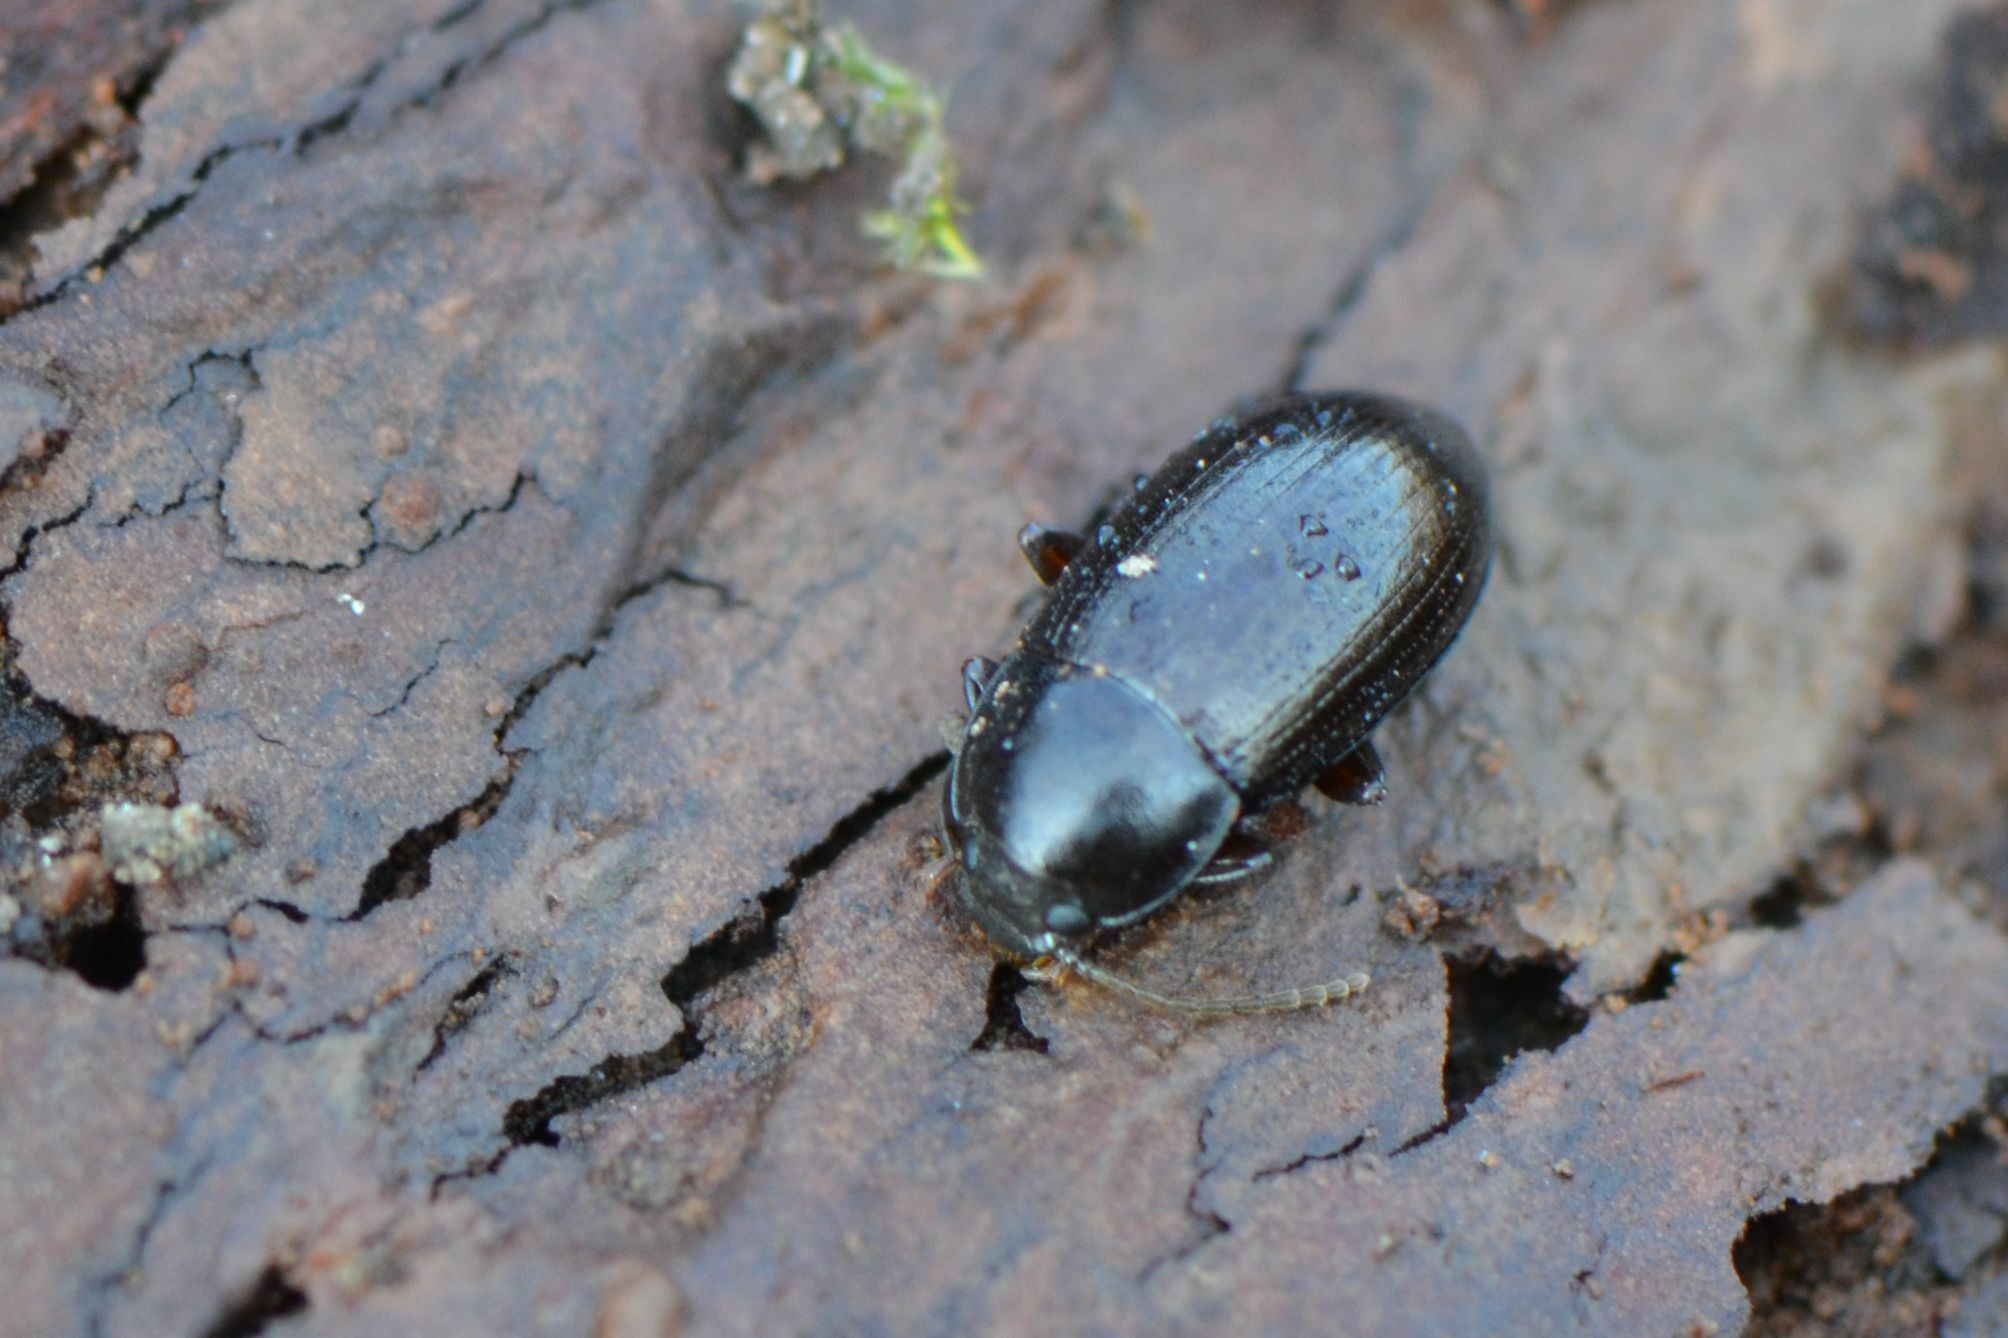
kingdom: Animalia
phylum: Arthropoda
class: Insecta
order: Coleoptera
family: Tenebrionidae
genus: Nalassus
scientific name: Nalassus laevioctostriatus
